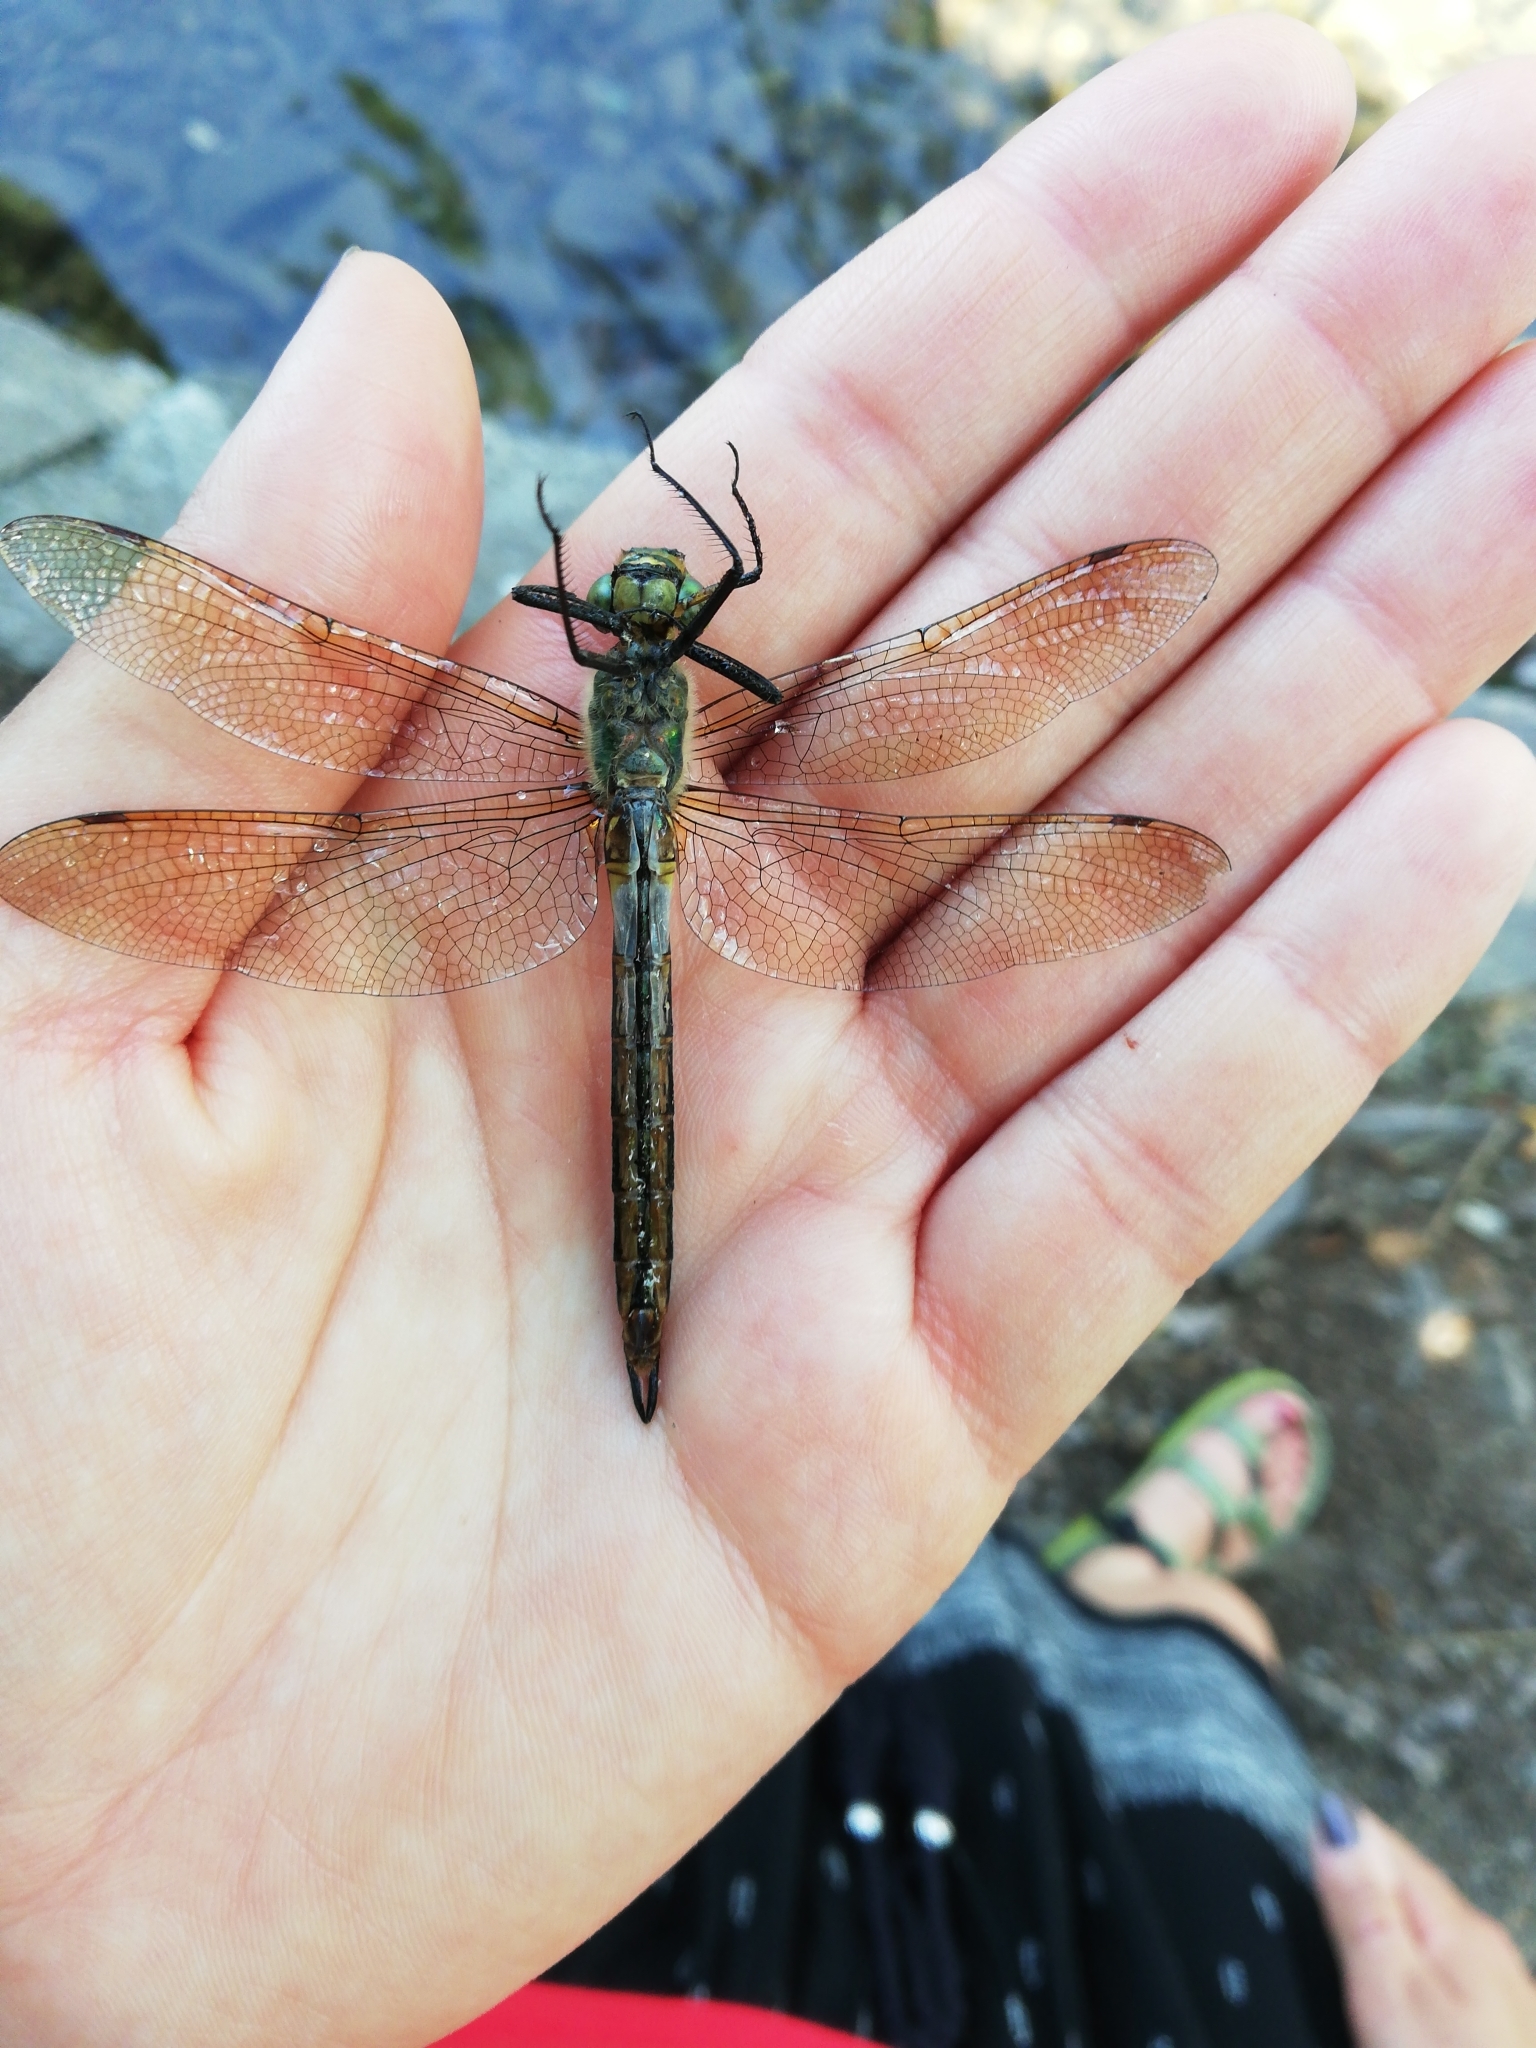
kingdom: Animalia
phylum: Arthropoda
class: Insecta
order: Odonata
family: Corduliidae
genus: Somatochlora
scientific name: Somatochlora metallica
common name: Brilliant emerald
